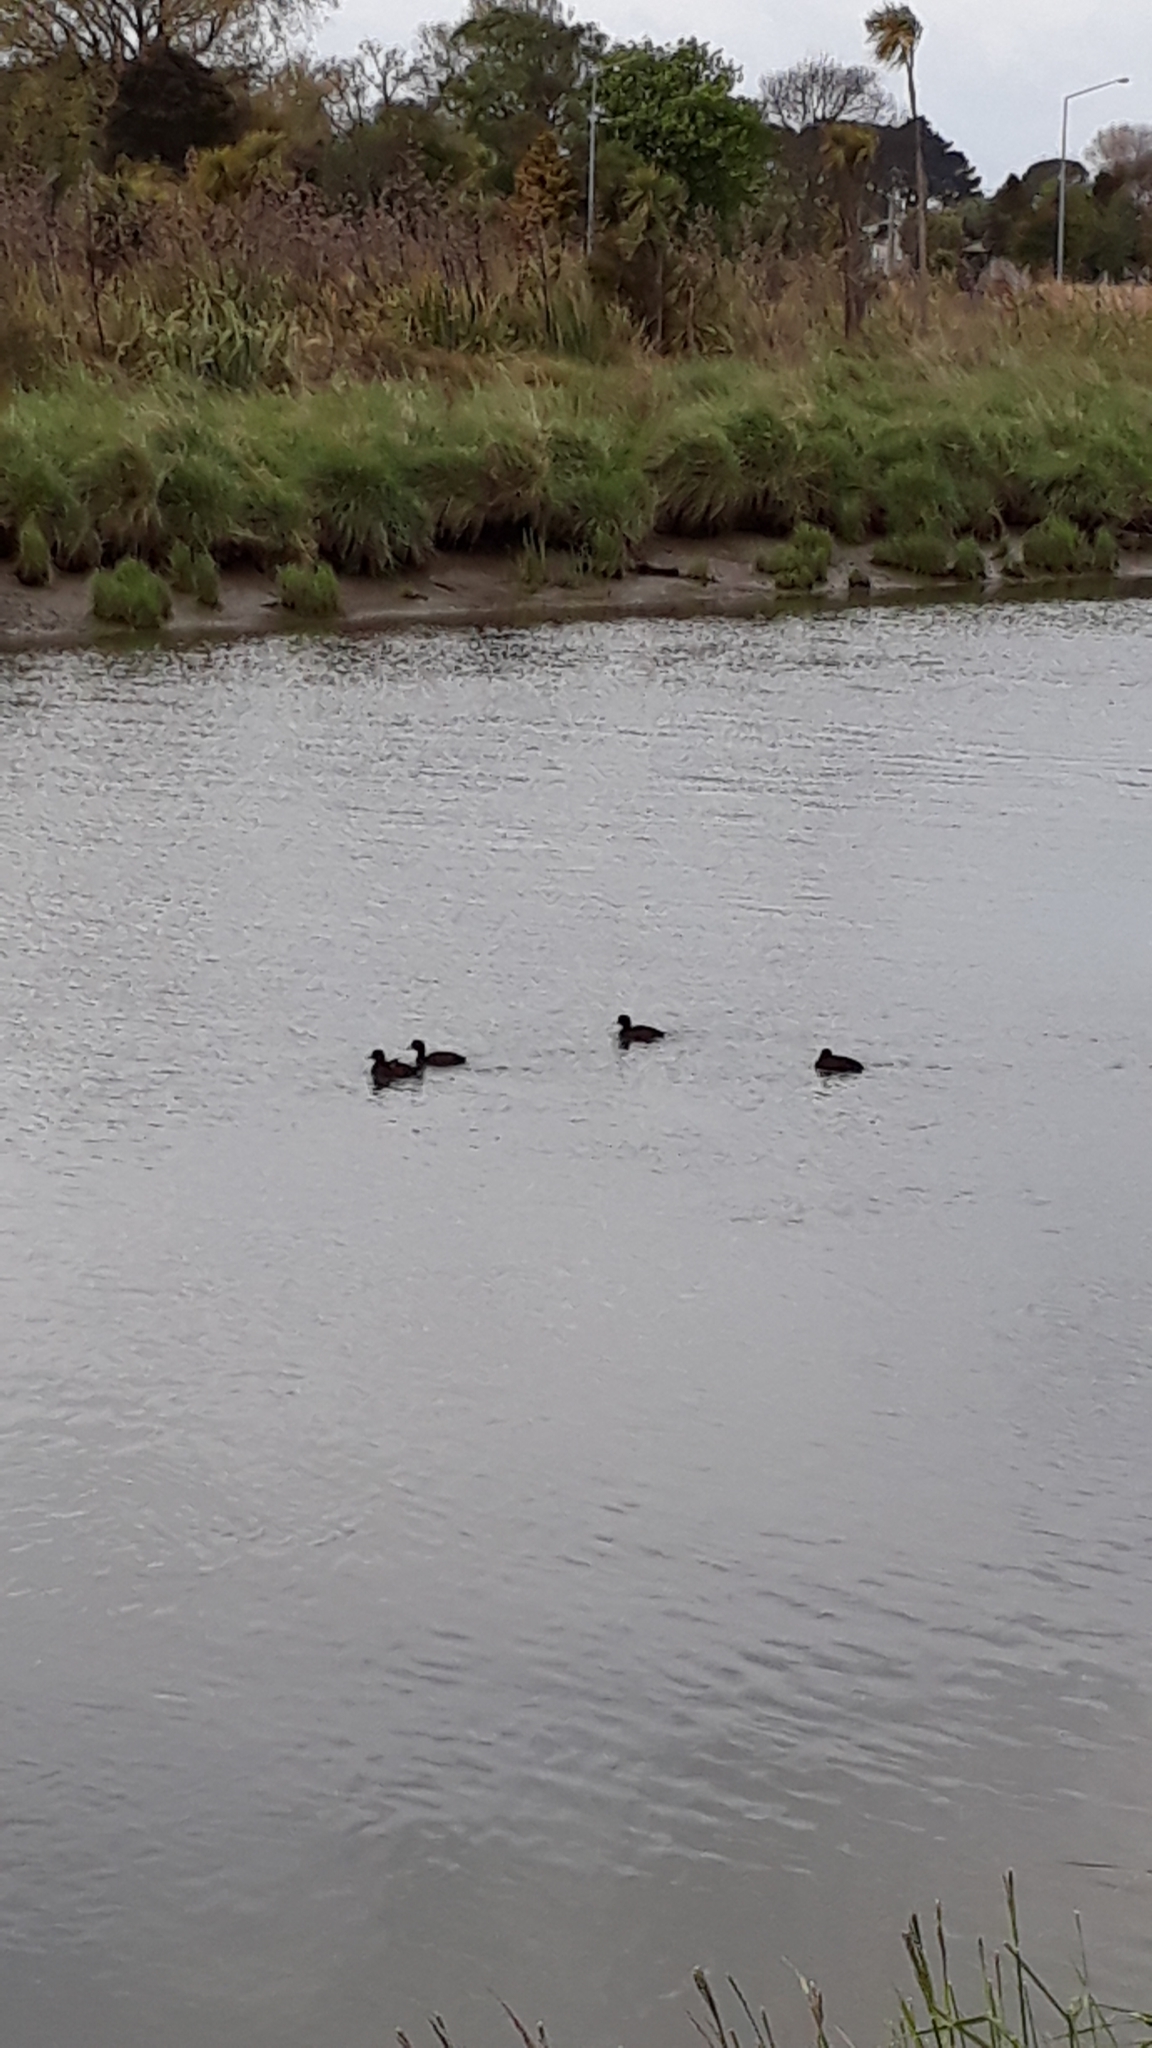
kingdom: Animalia
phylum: Chordata
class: Aves
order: Anseriformes
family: Anatidae
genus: Aythya
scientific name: Aythya novaeseelandiae
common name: New zealand scaup
